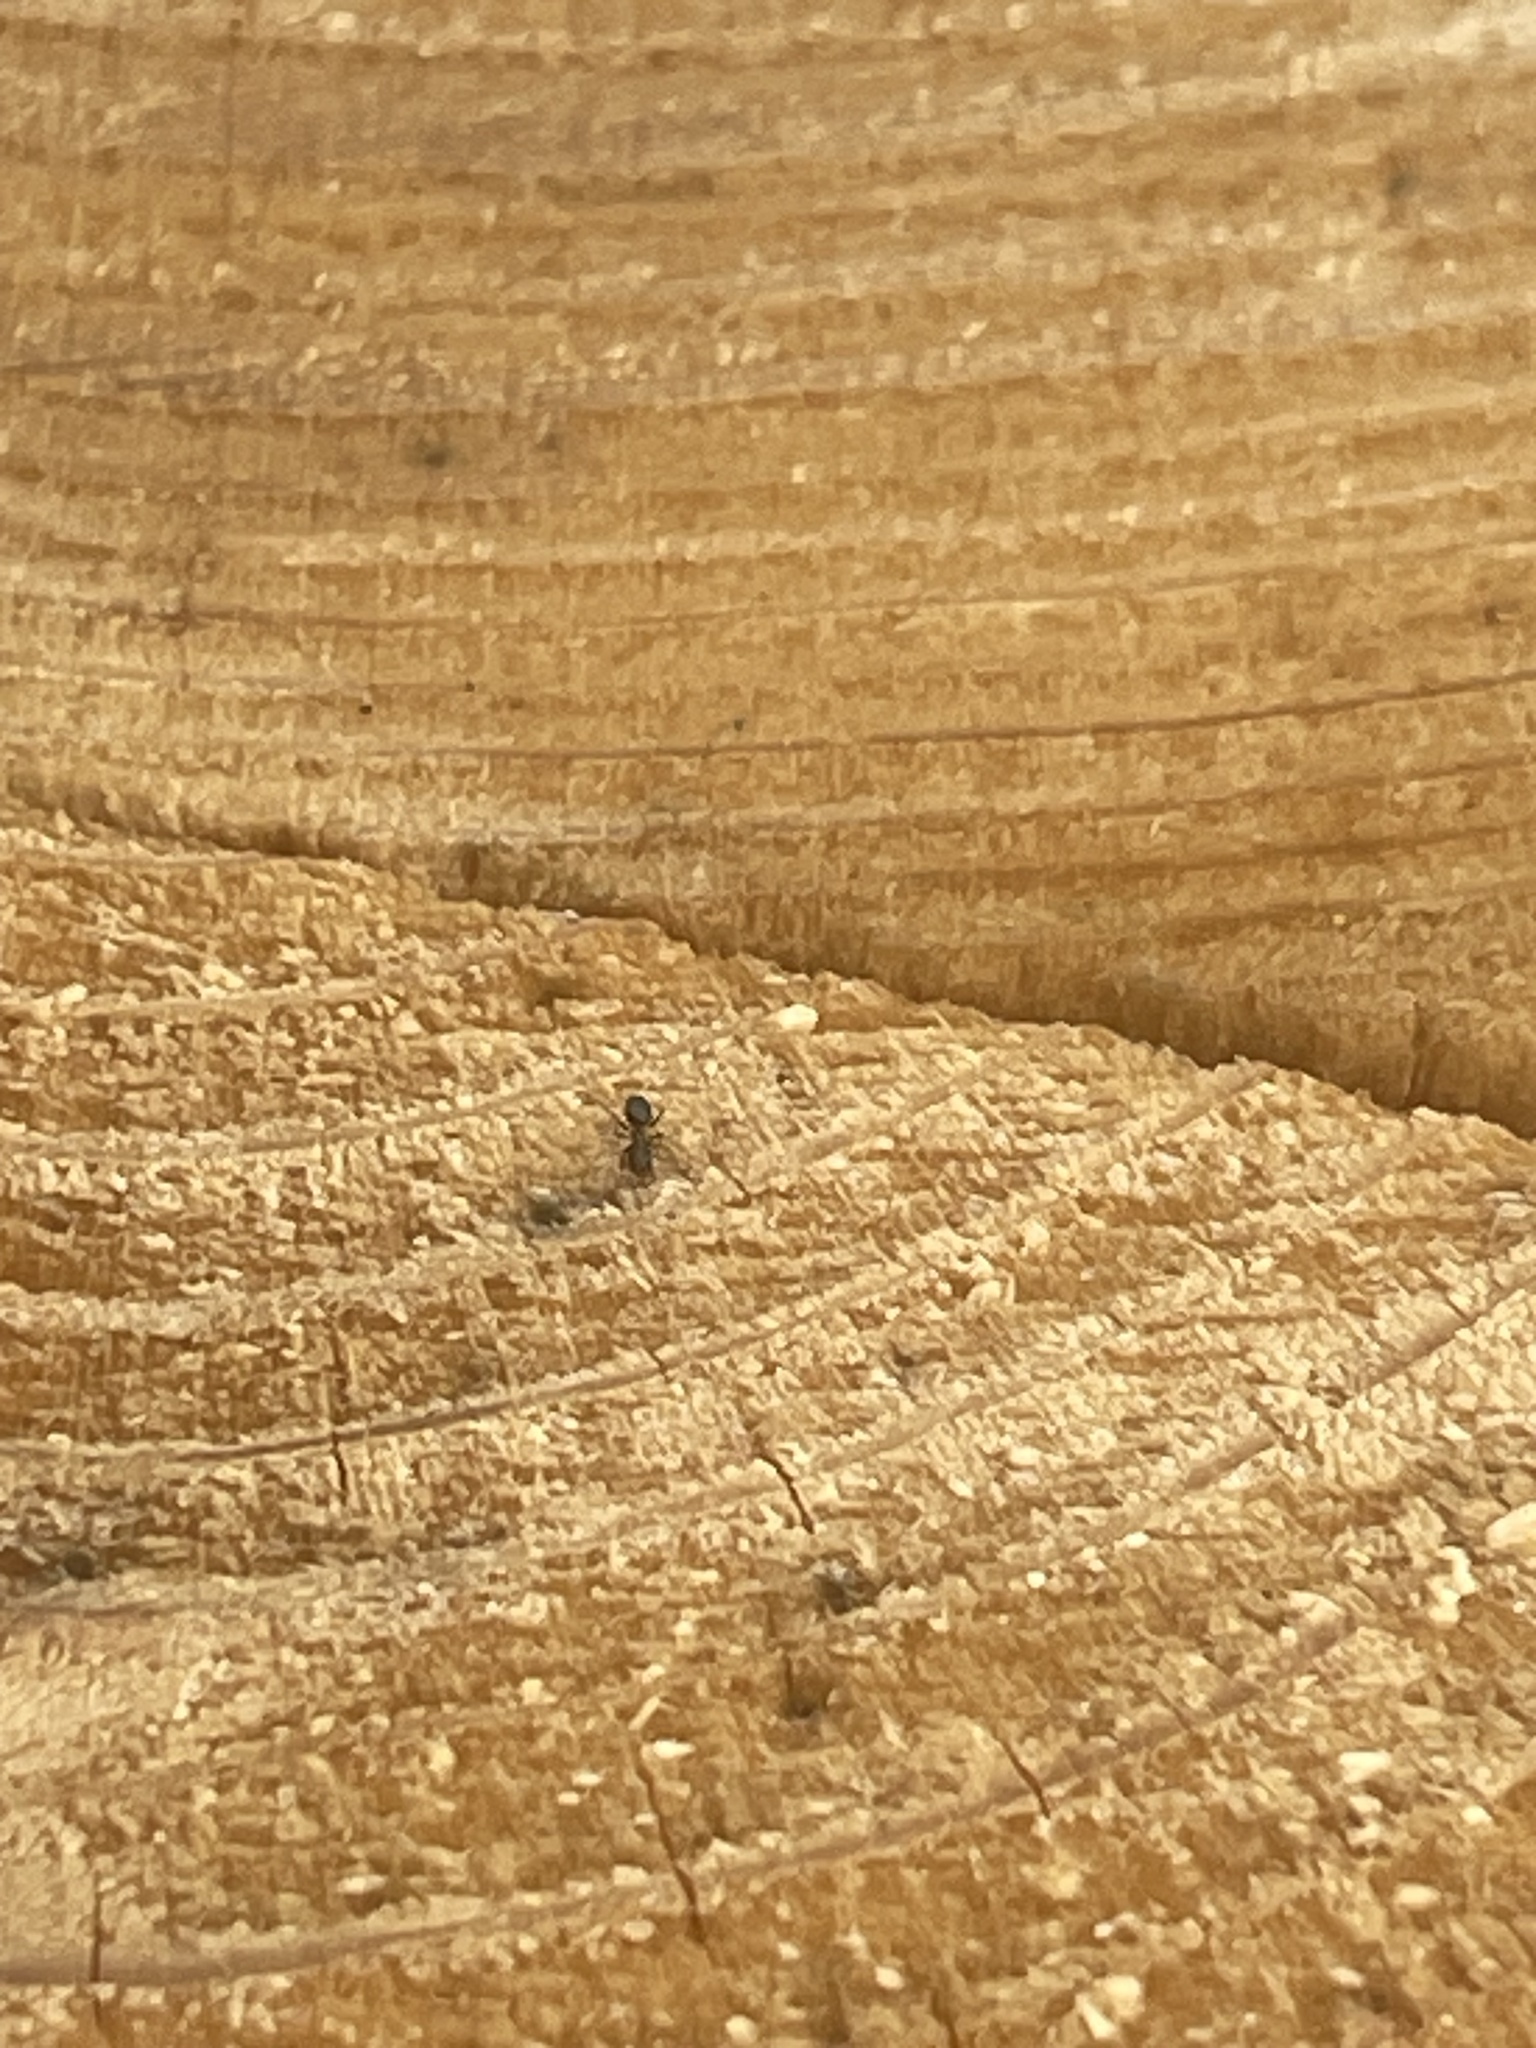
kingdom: Animalia
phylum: Arthropoda
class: Insecta
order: Hymenoptera
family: Formicidae
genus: Brachymyrmex
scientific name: Brachymyrmex patagonicus
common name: Dark rover ant
